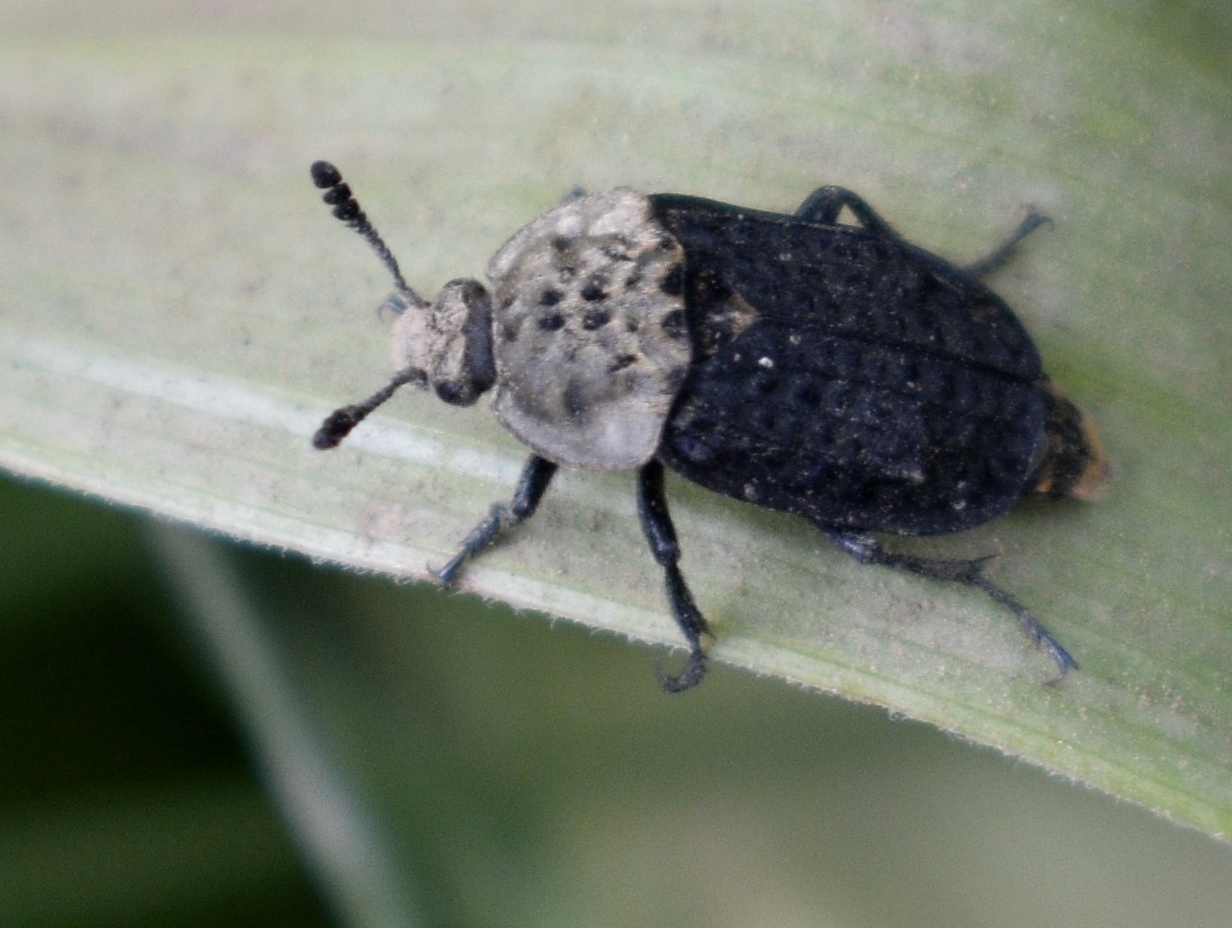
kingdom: Animalia
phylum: Arthropoda
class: Insecta
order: Coleoptera
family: Staphylinidae
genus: Thanatophilus
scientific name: Thanatophilus lapponicus
